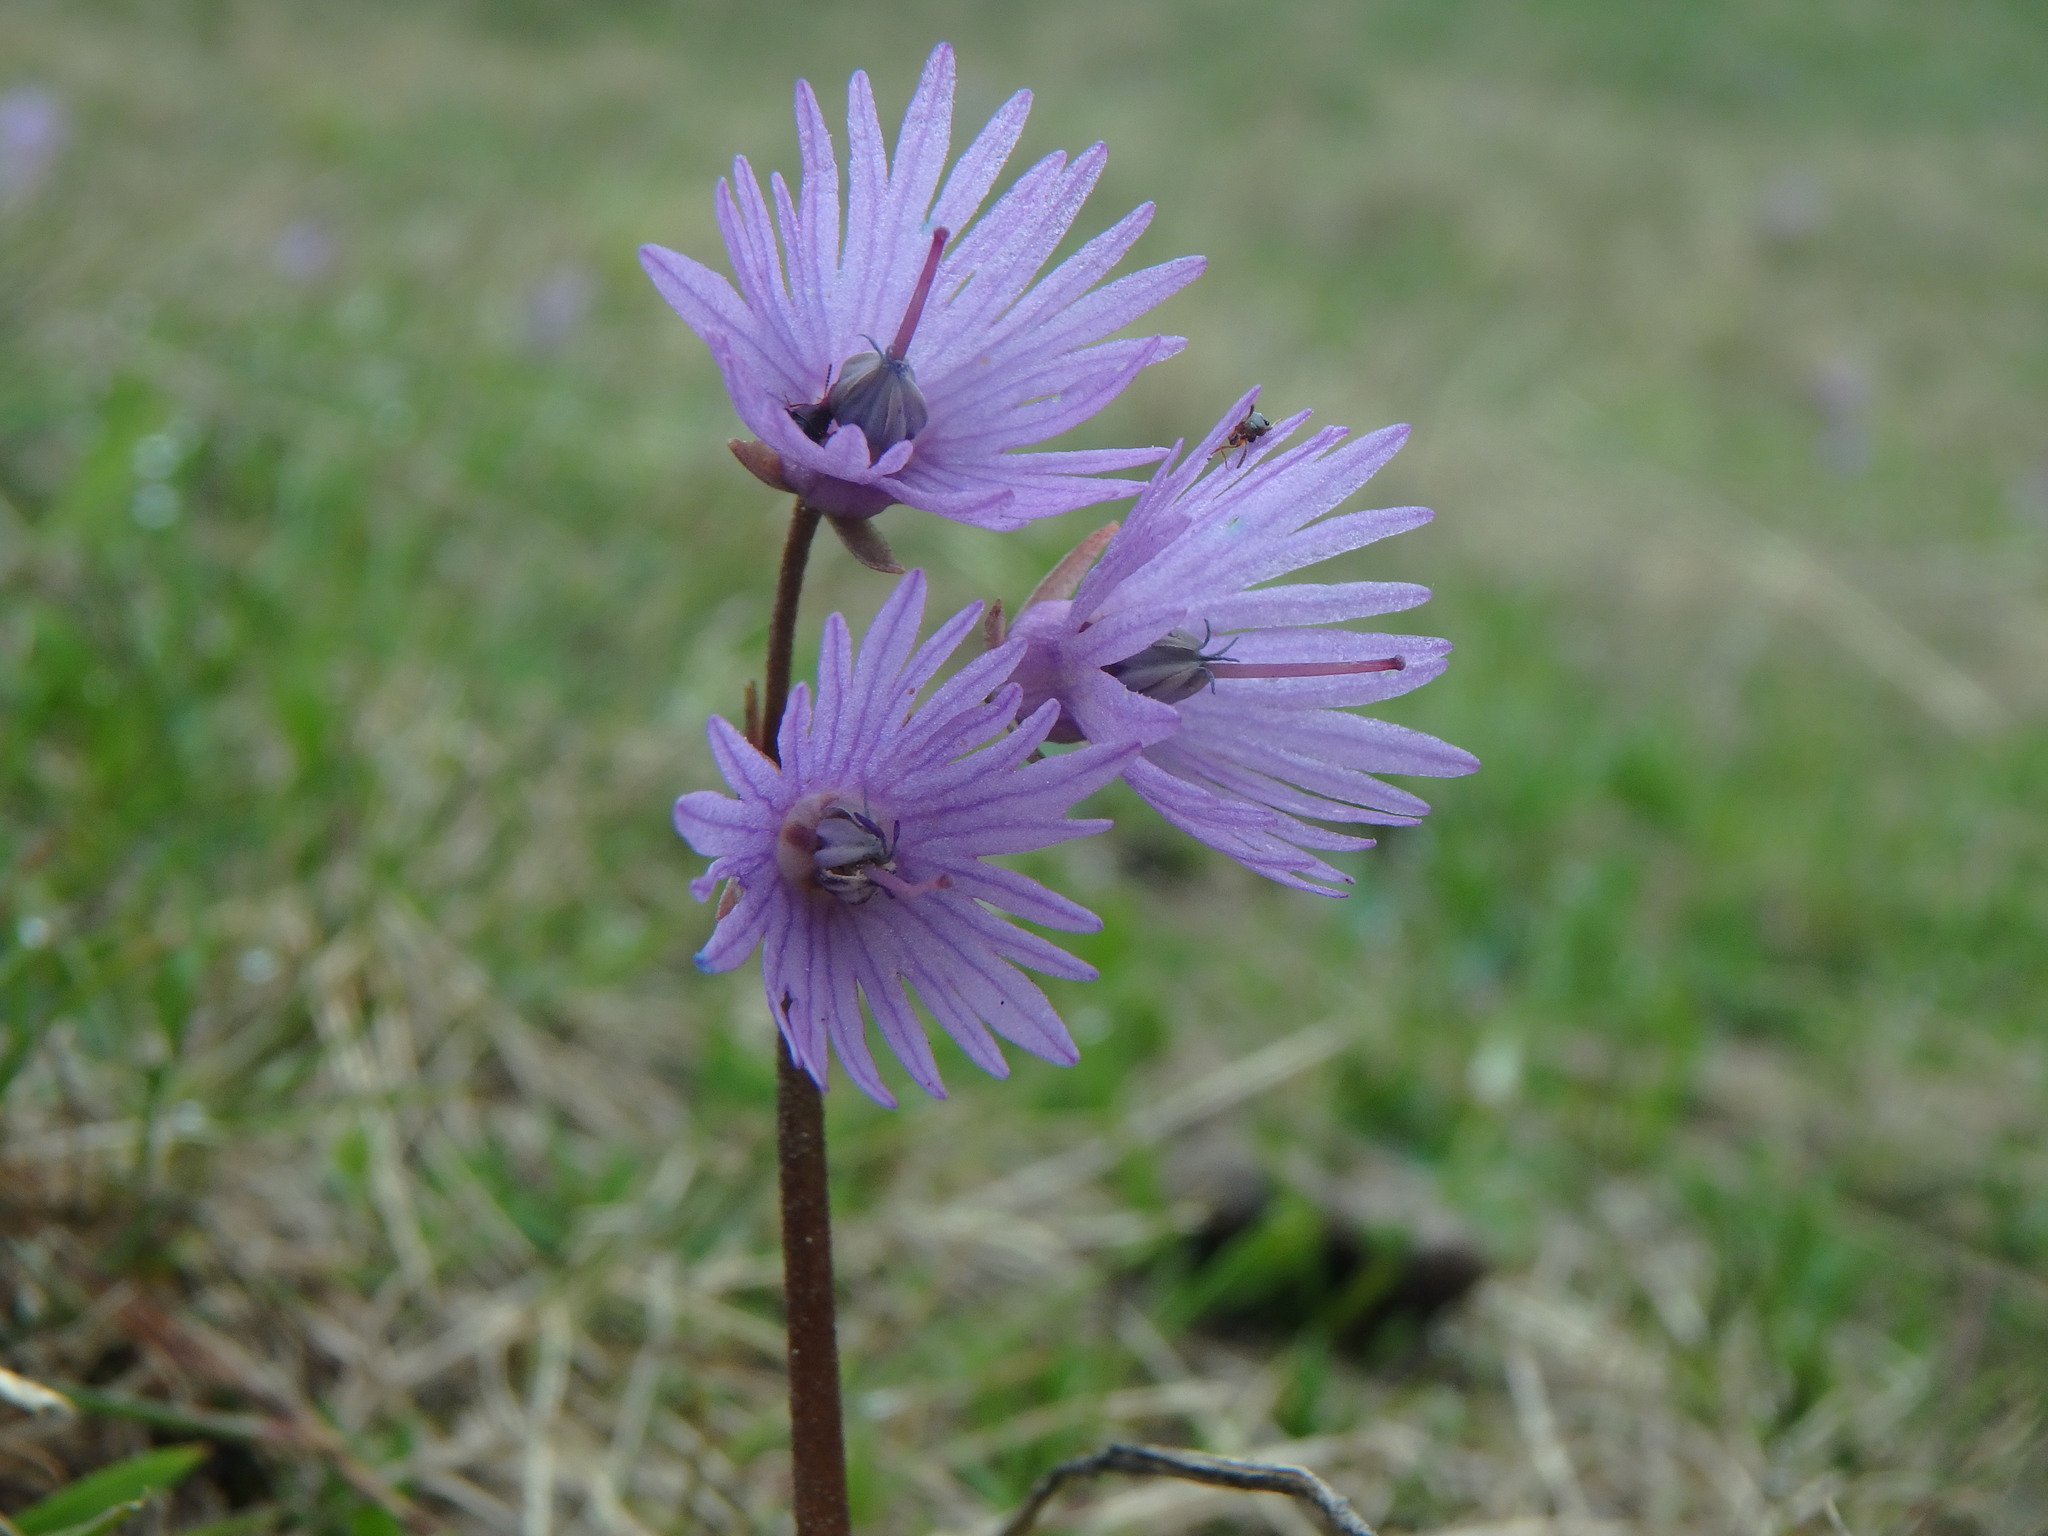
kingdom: Plantae
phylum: Tracheophyta
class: Magnoliopsida
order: Ericales
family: Primulaceae
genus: Soldanella
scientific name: Soldanella alpina
